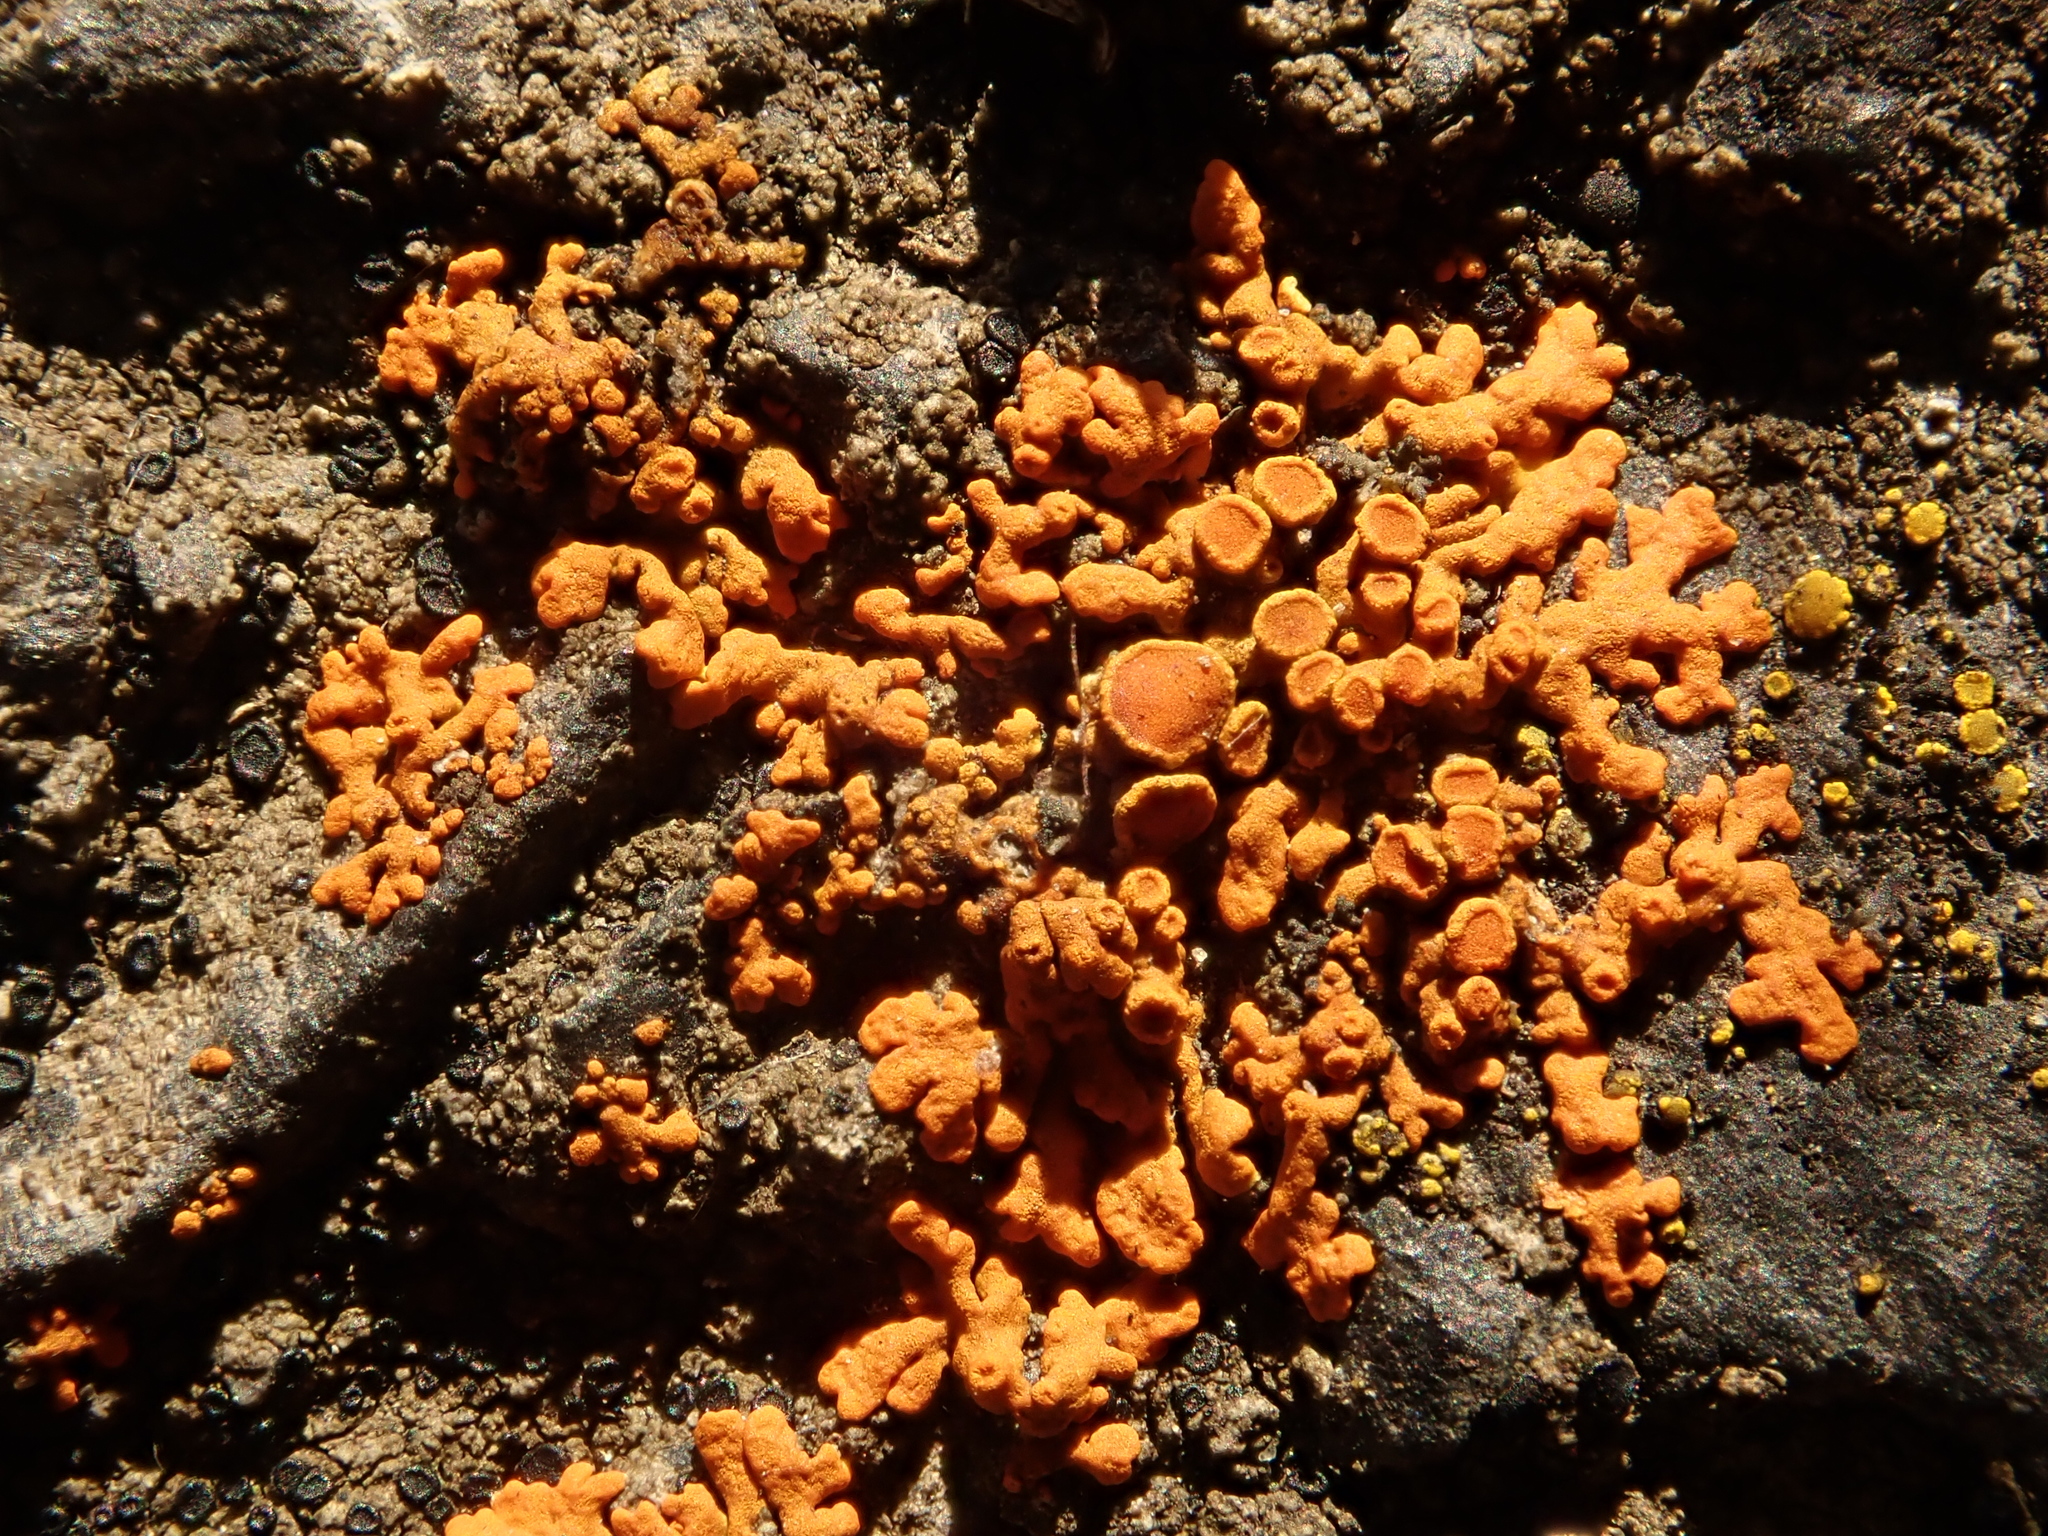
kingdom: Fungi
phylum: Ascomycota
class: Lecanoromycetes
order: Teloschistales
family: Teloschistaceae
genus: Xanthoria
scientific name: Xanthoria elegans
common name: Elegant sunburst lichen
